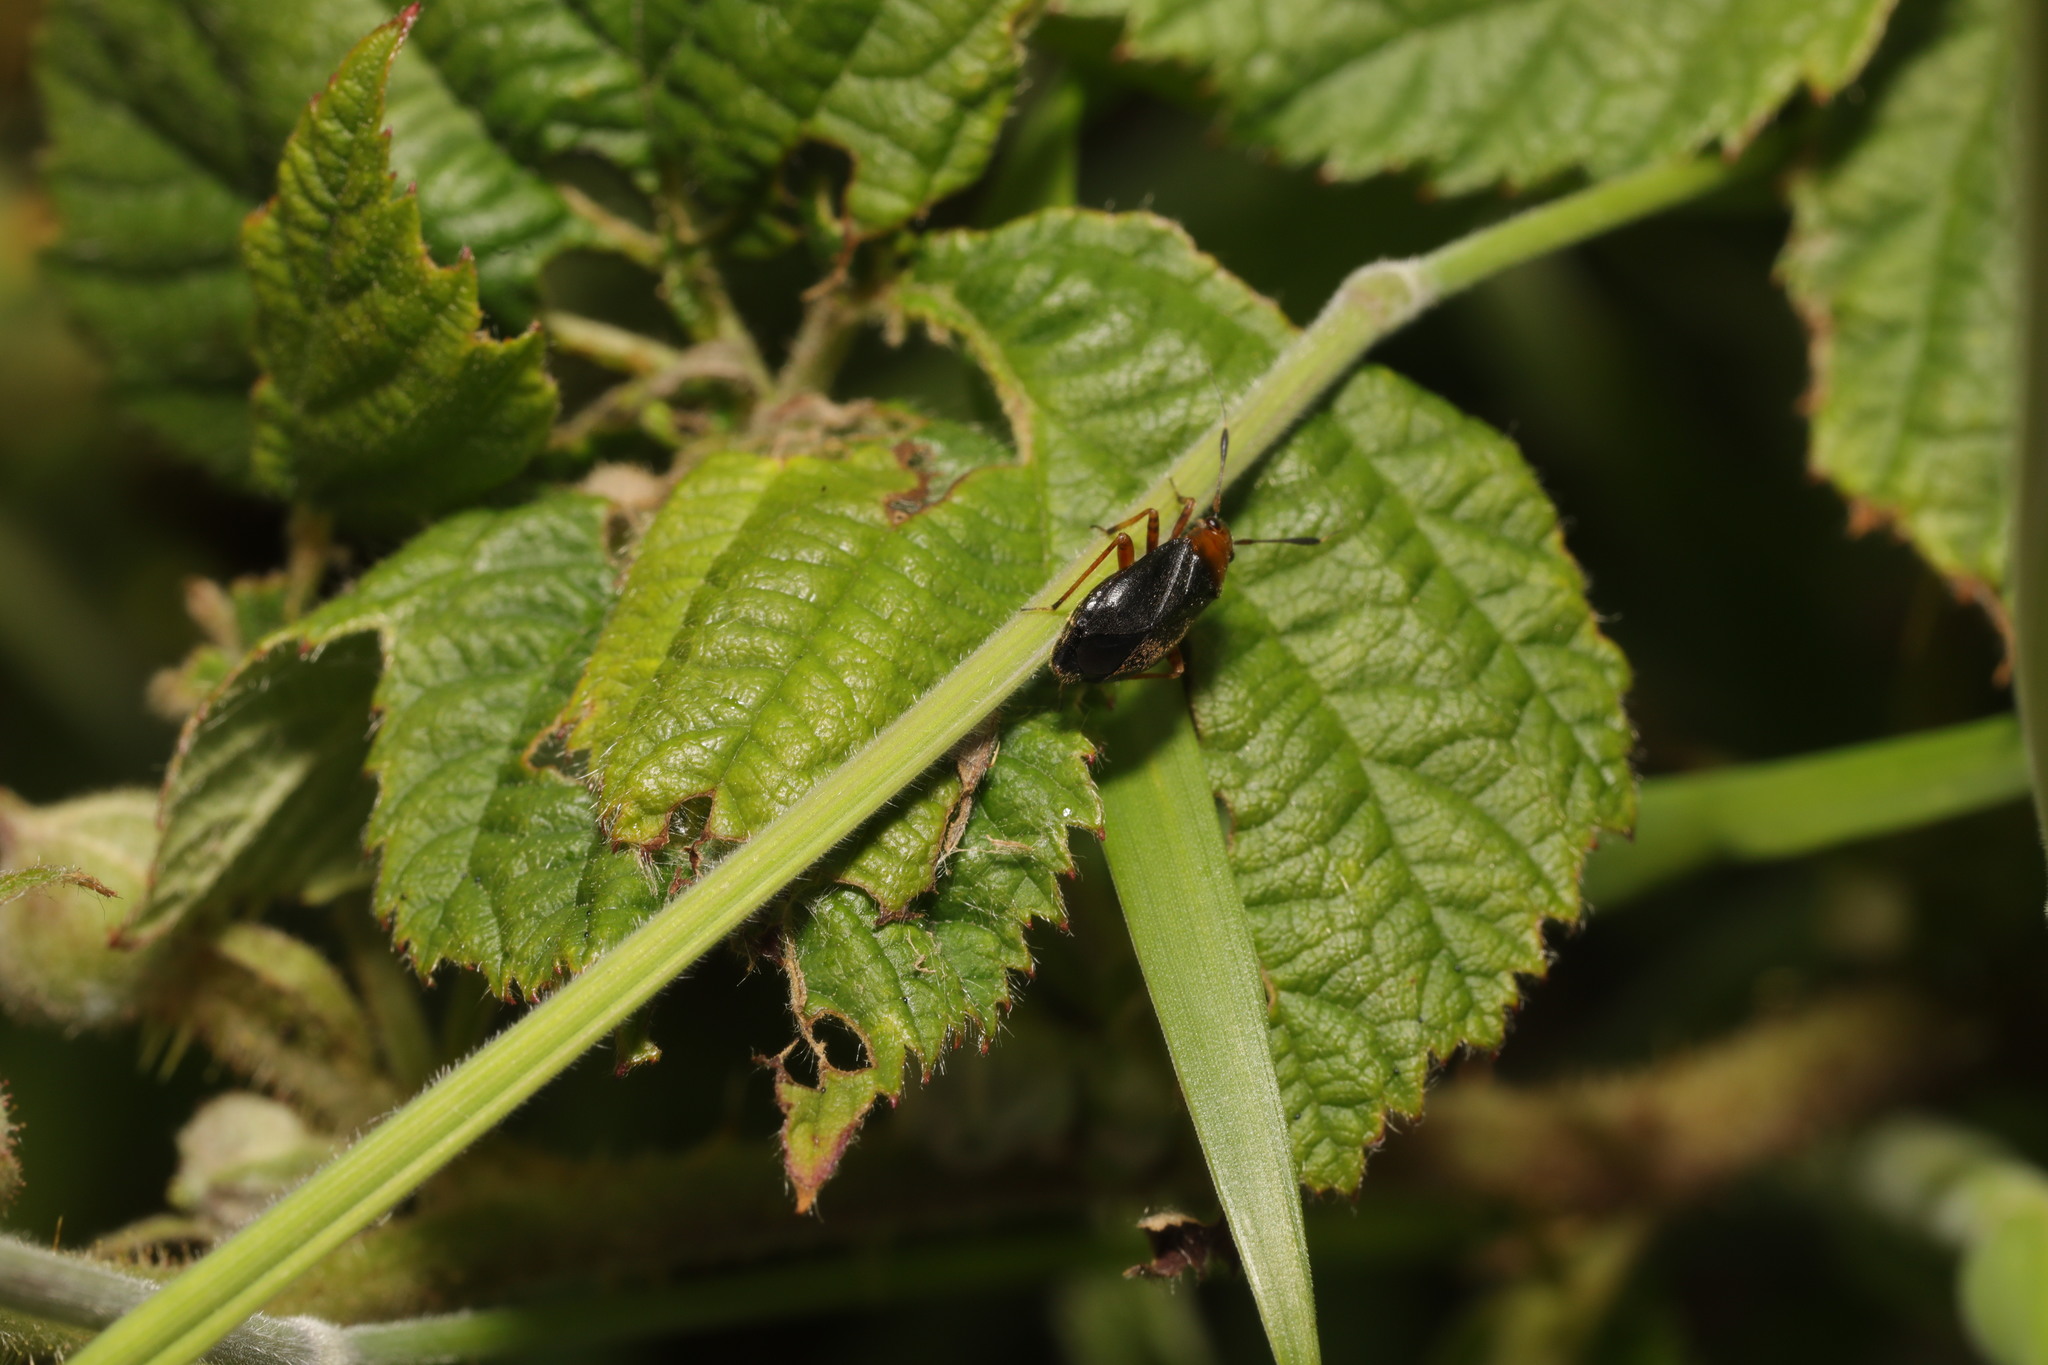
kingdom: Animalia
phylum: Arthropoda
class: Insecta
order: Hemiptera
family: Miridae
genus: Capsus
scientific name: Capsus ater
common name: Black plant bug
